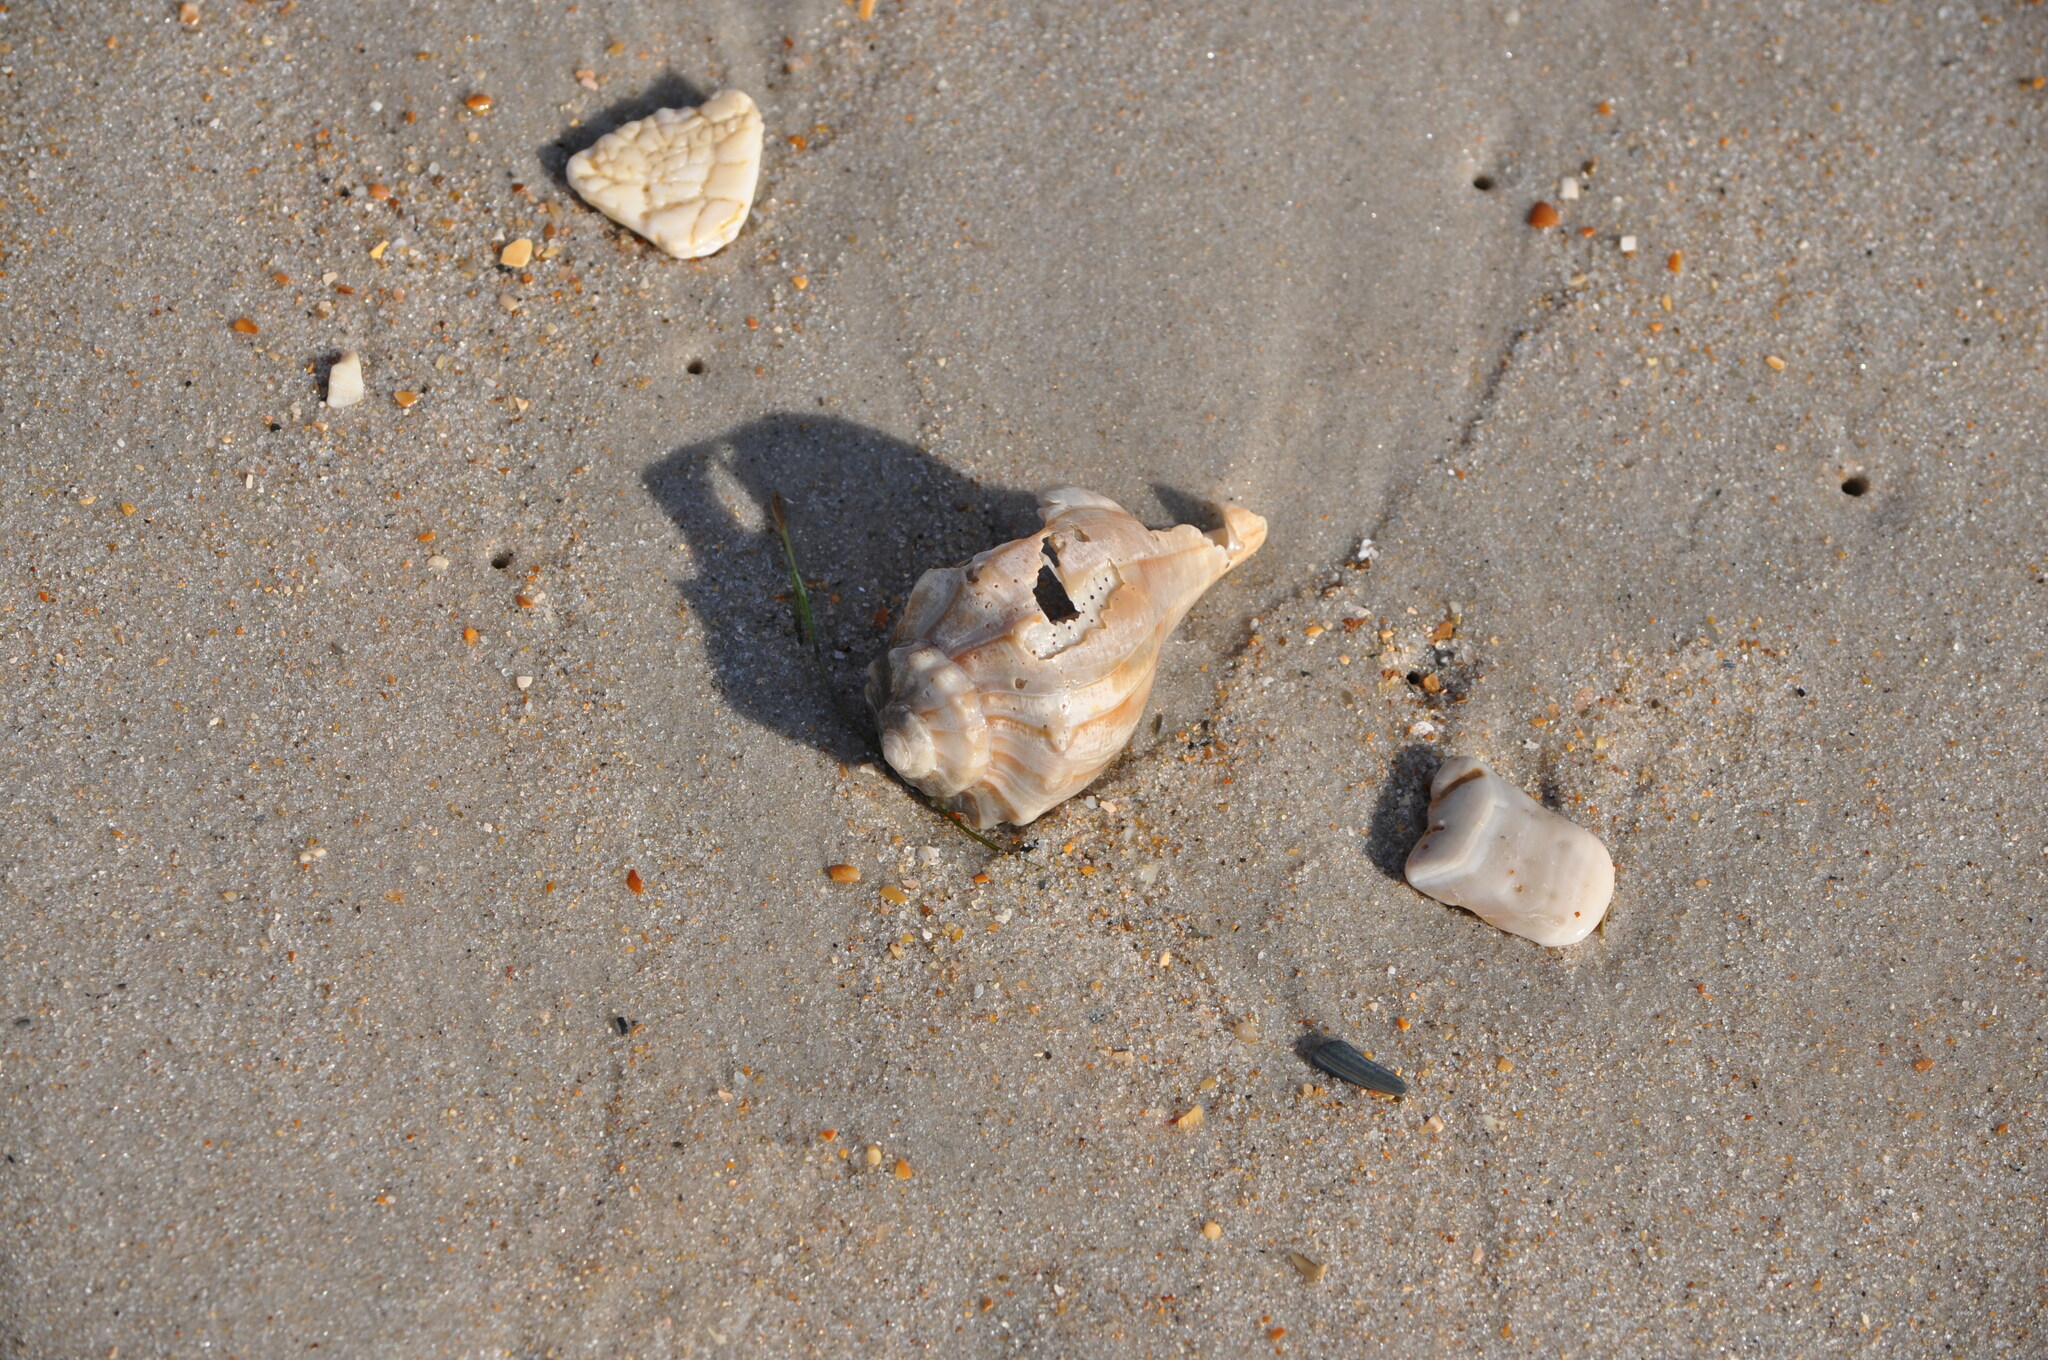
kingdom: Animalia
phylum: Mollusca
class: Gastropoda
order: Neogastropoda
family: Busyconidae
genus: Sinistrofulgur
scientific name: Sinistrofulgur sinistrum
